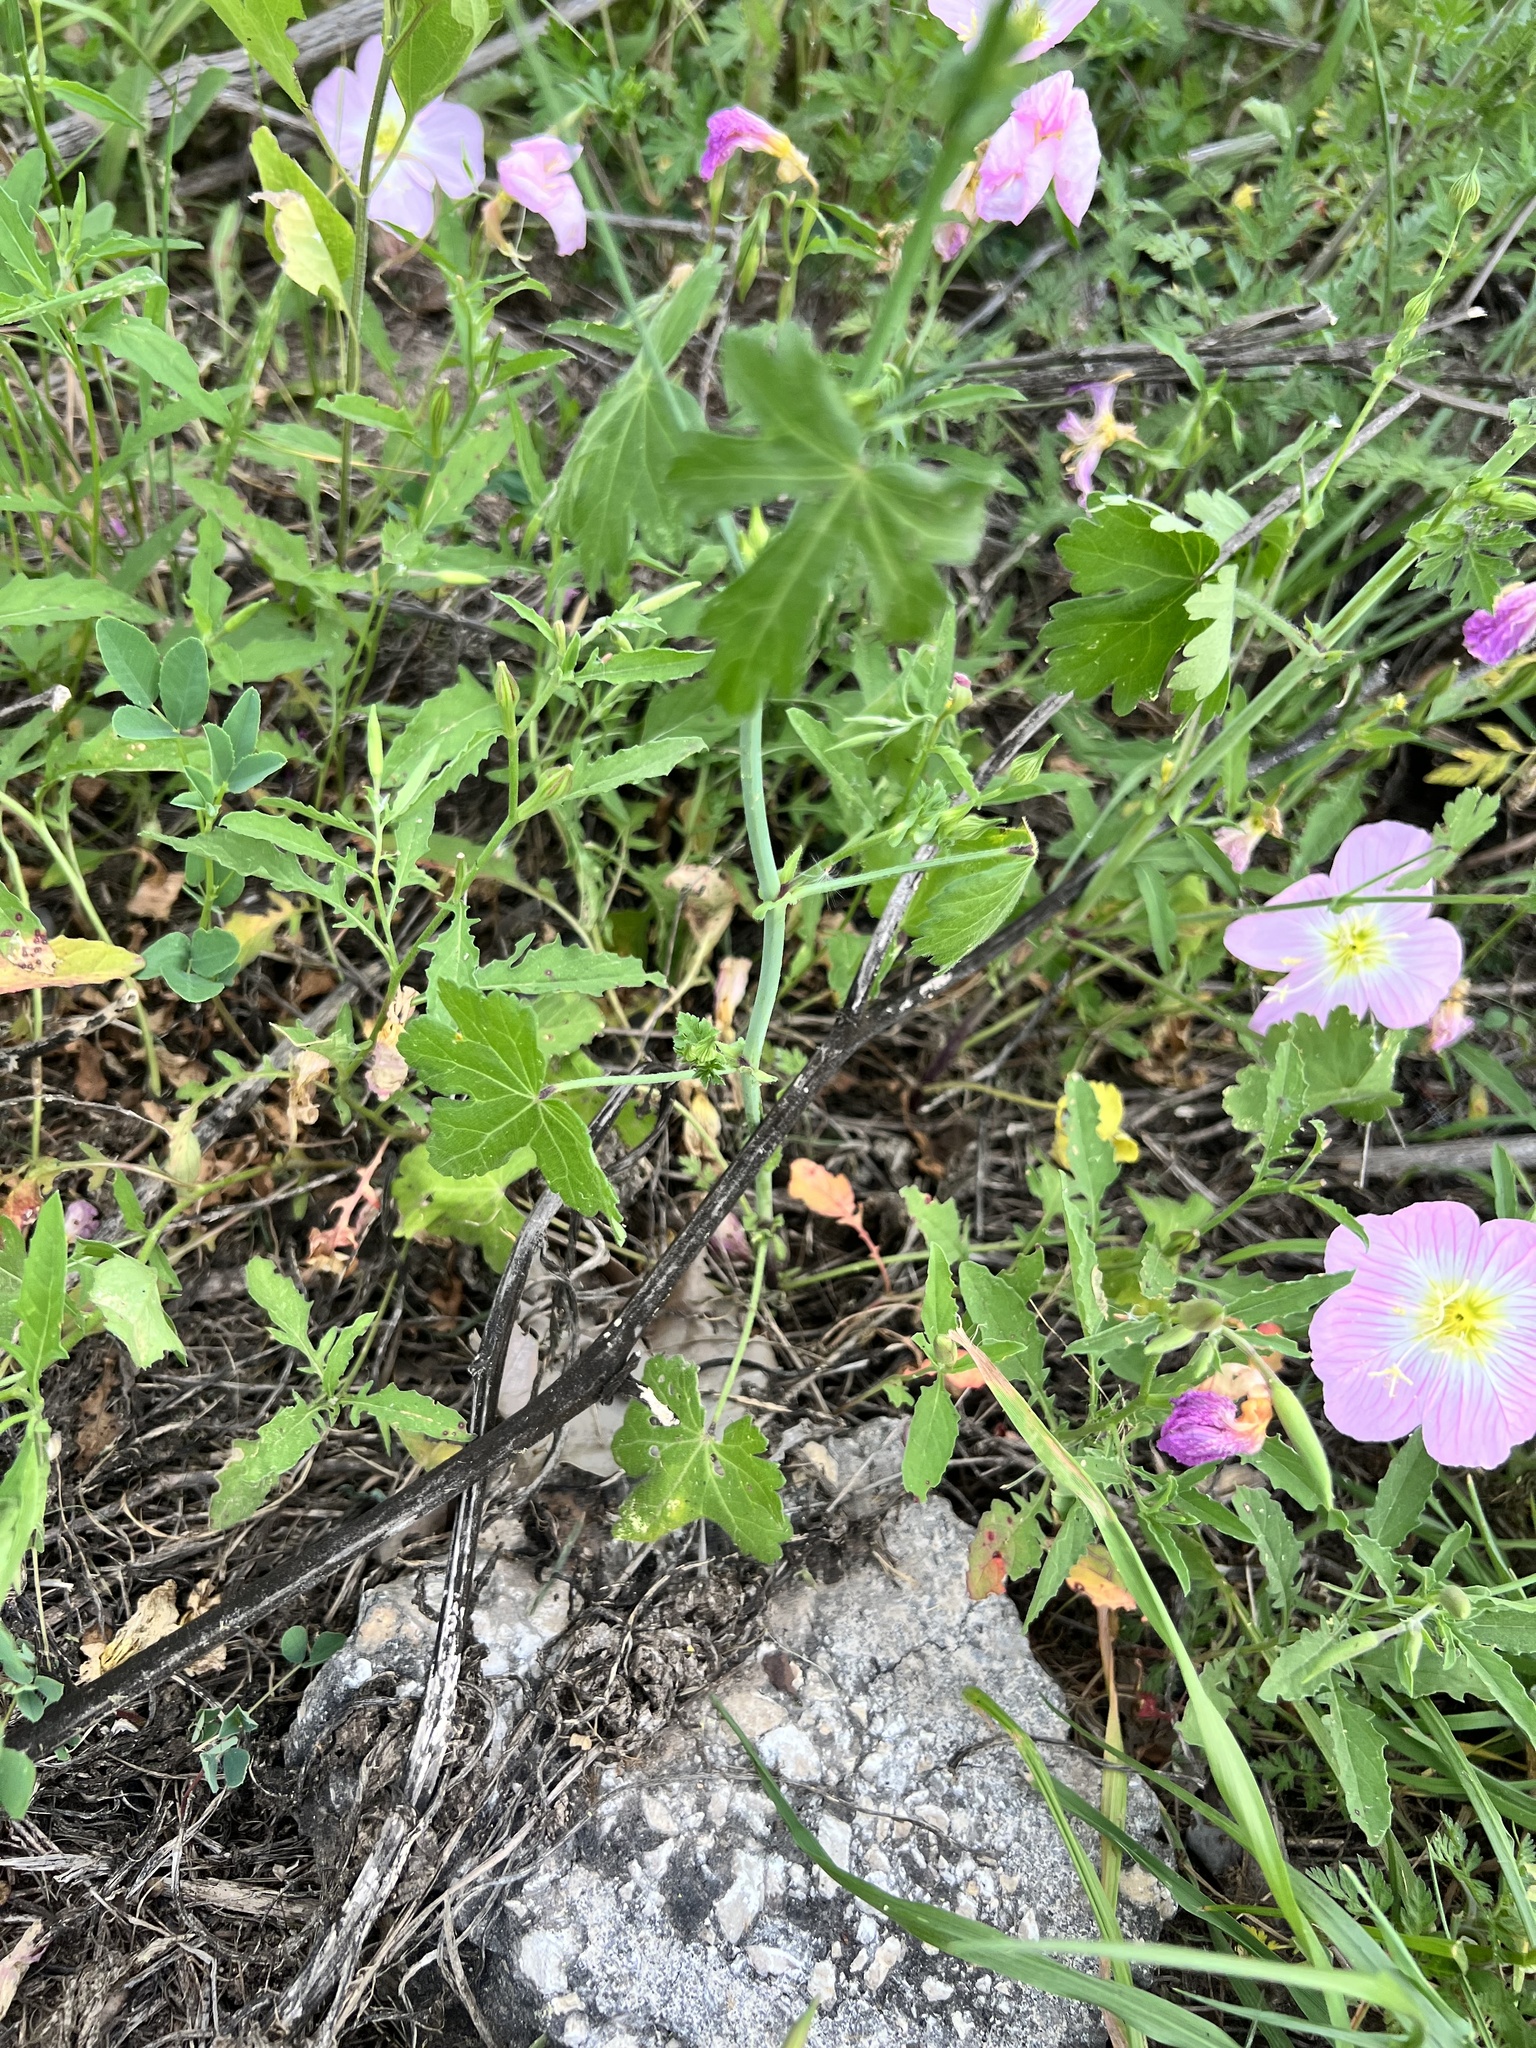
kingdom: Plantae
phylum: Tracheophyta
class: Magnoliopsida
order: Malvales
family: Malvaceae
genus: Callirhoe
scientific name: Callirhoe leiocarpa
